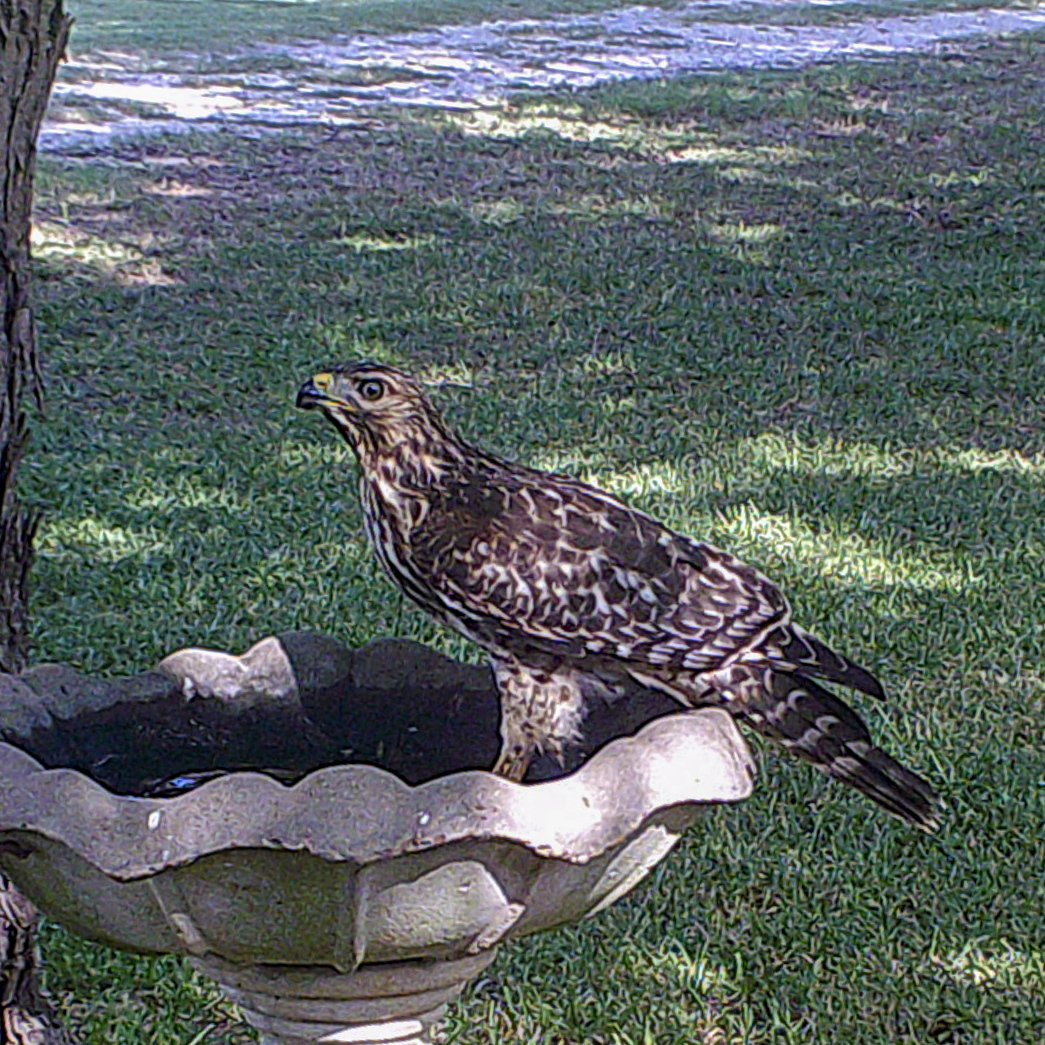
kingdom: Animalia
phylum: Chordata
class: Aves
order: Accipitriformes
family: Accipitridae
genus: Buteo
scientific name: Buteo lineatus
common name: Red-shouldered hawk
